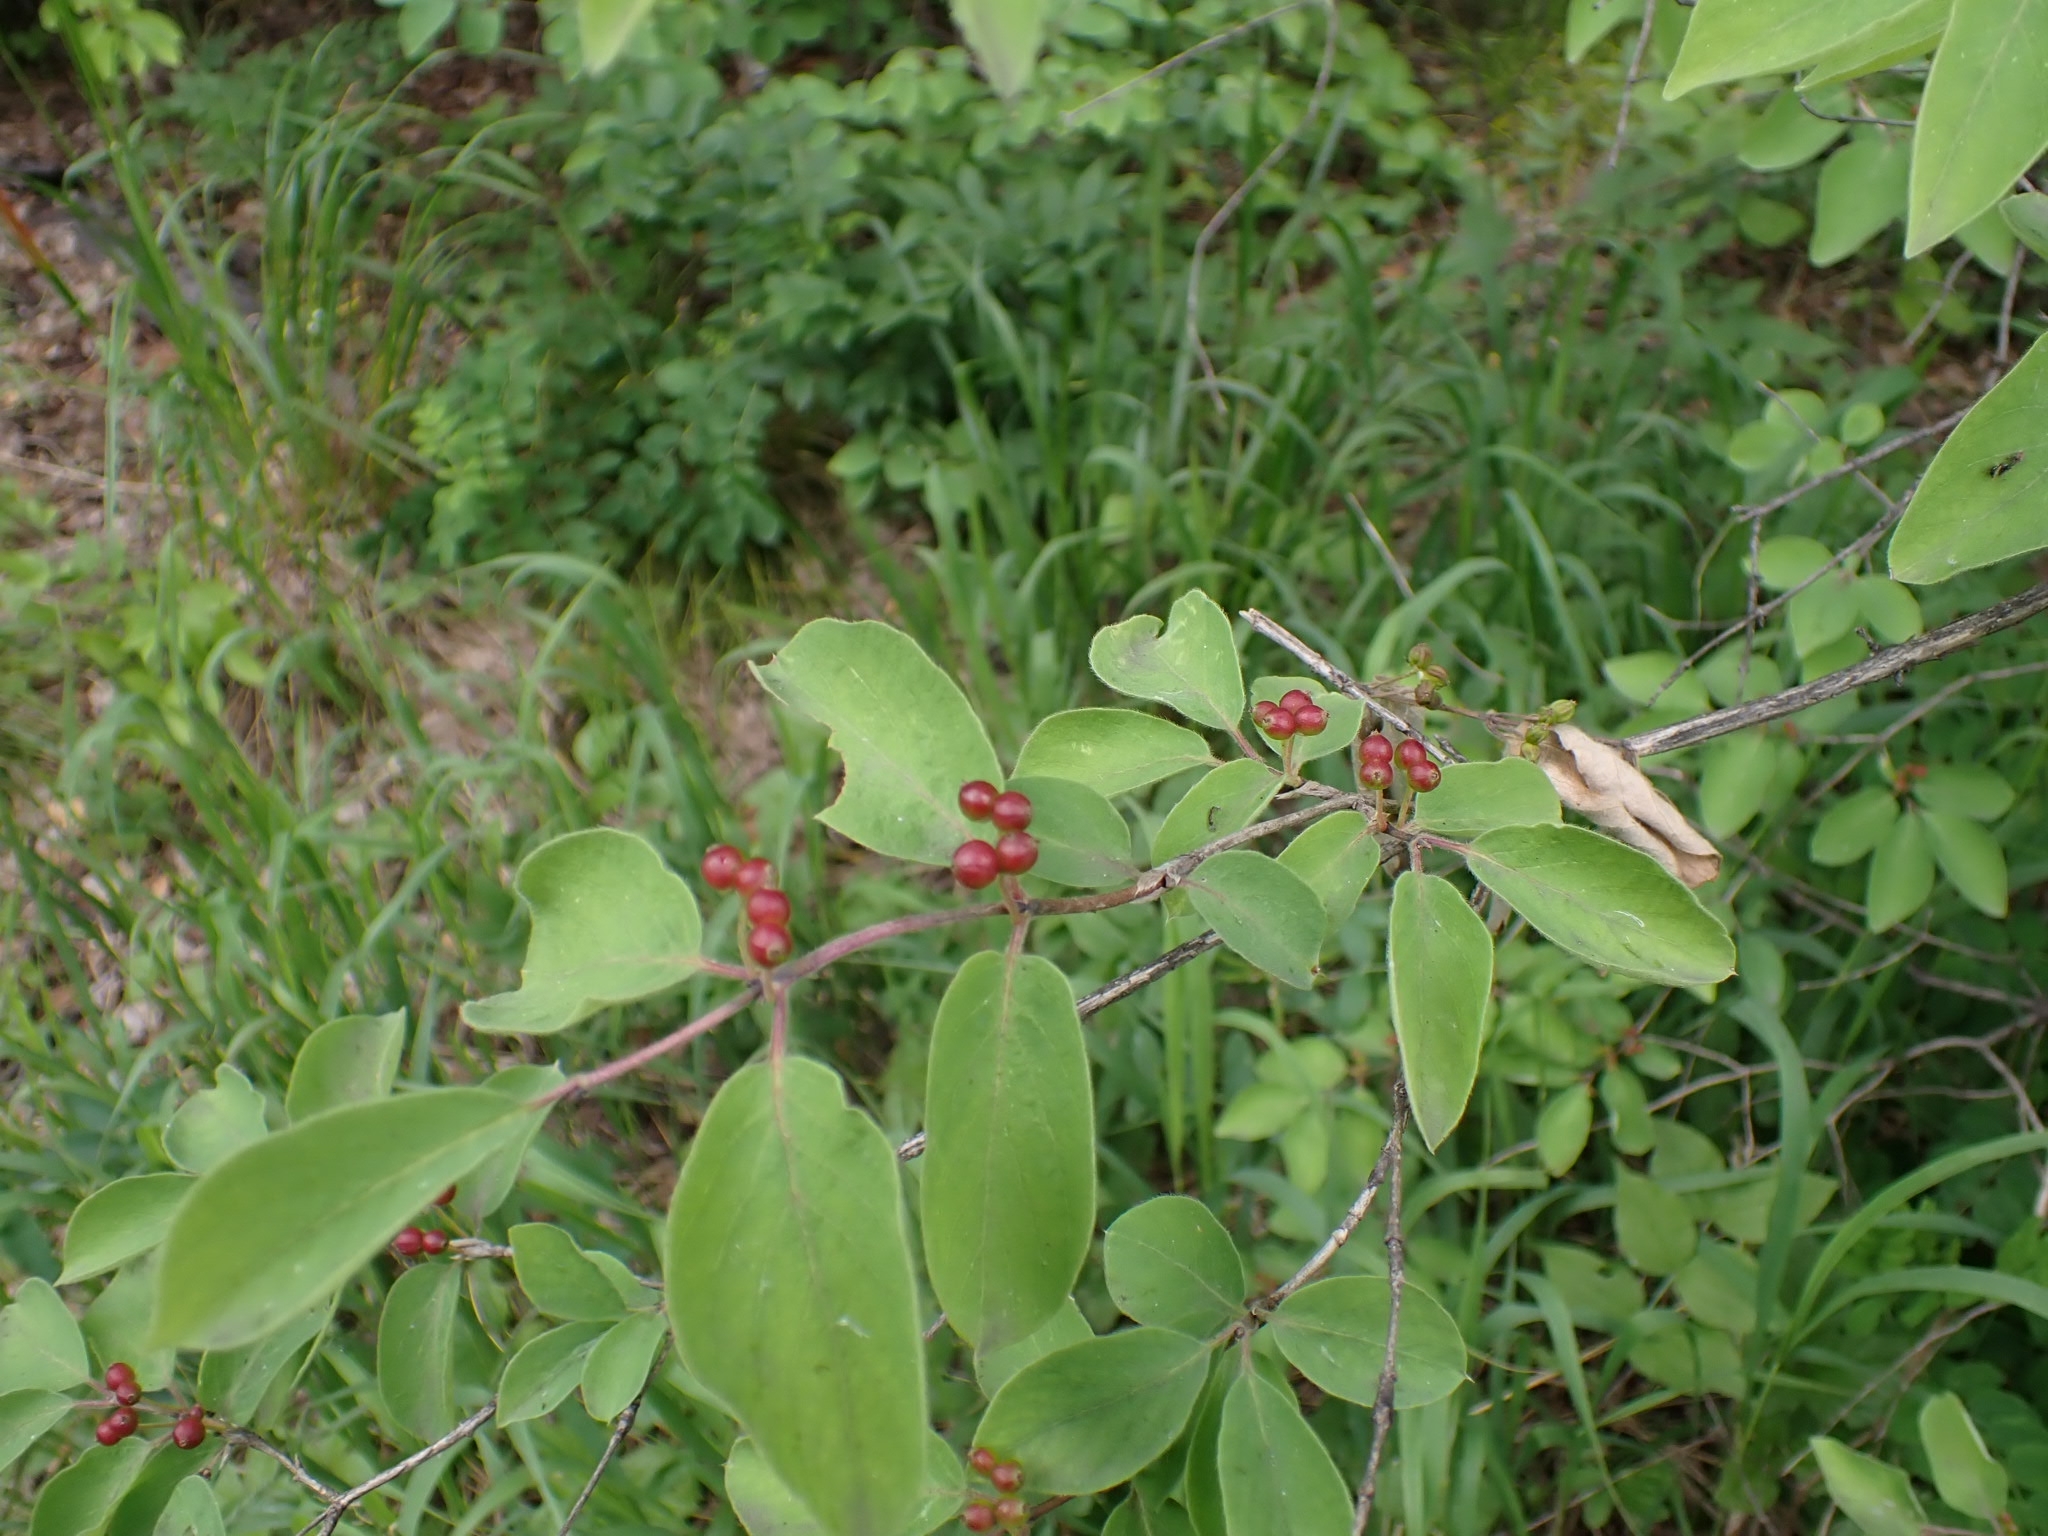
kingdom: Plantae
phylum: Tracheophyta
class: Magnoliopsida
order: Dipsacales
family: Caprifoliaceae
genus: Lonicera
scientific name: Lonicera xylosteum
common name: Fly honeysuckle
